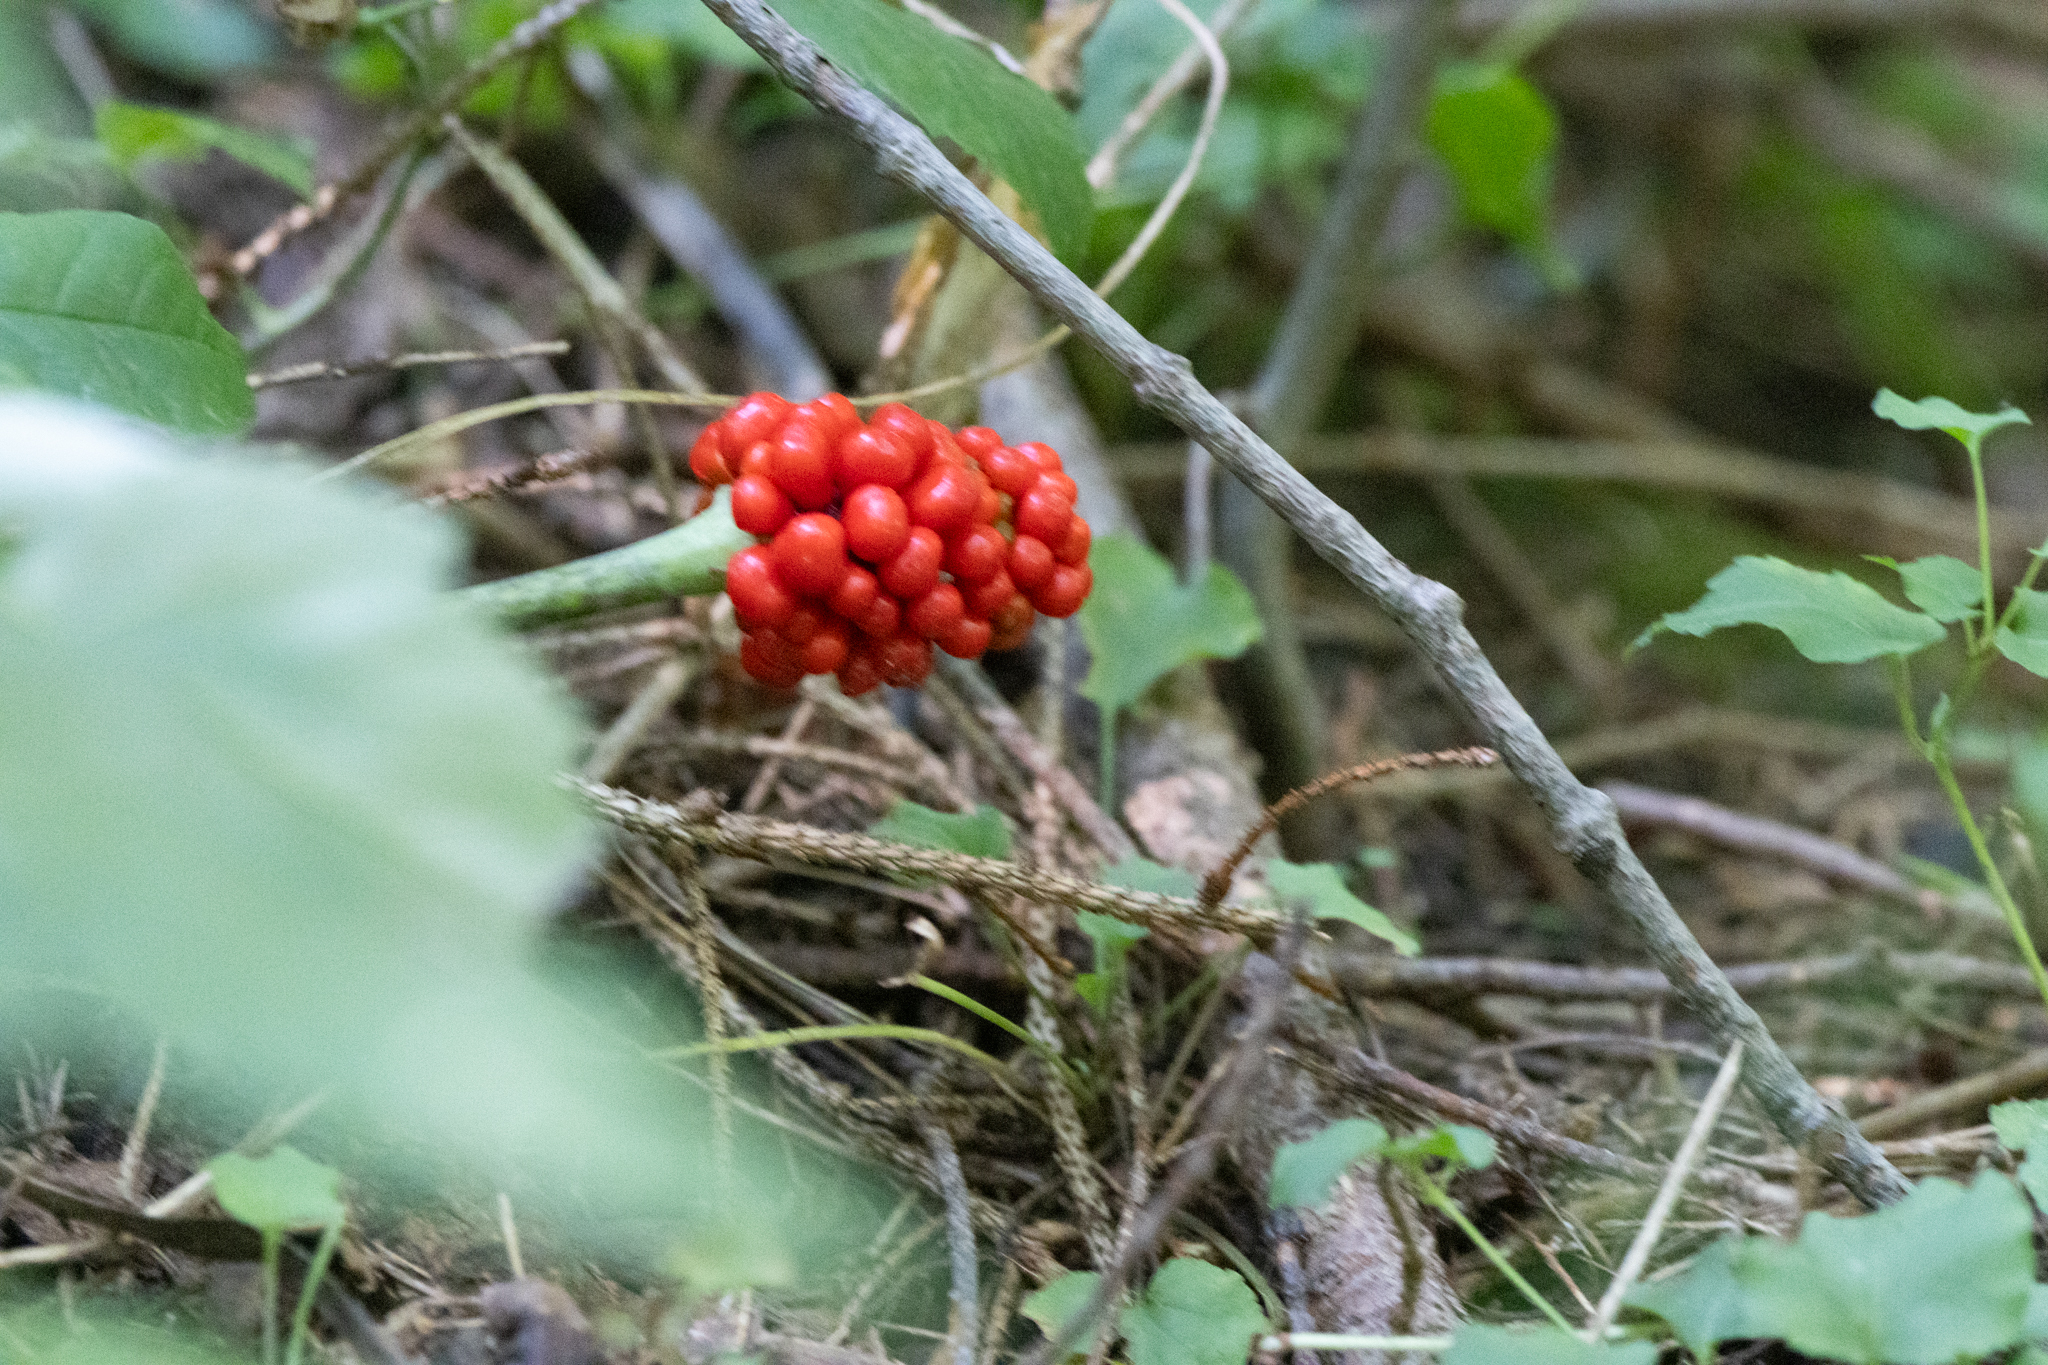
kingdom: Plantae
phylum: Tracheophyta
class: Liliopsida
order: Alismatales
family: Araceae
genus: Arisaema
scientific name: Arisaema triphyllum
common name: Jack-in-the-pulpit
